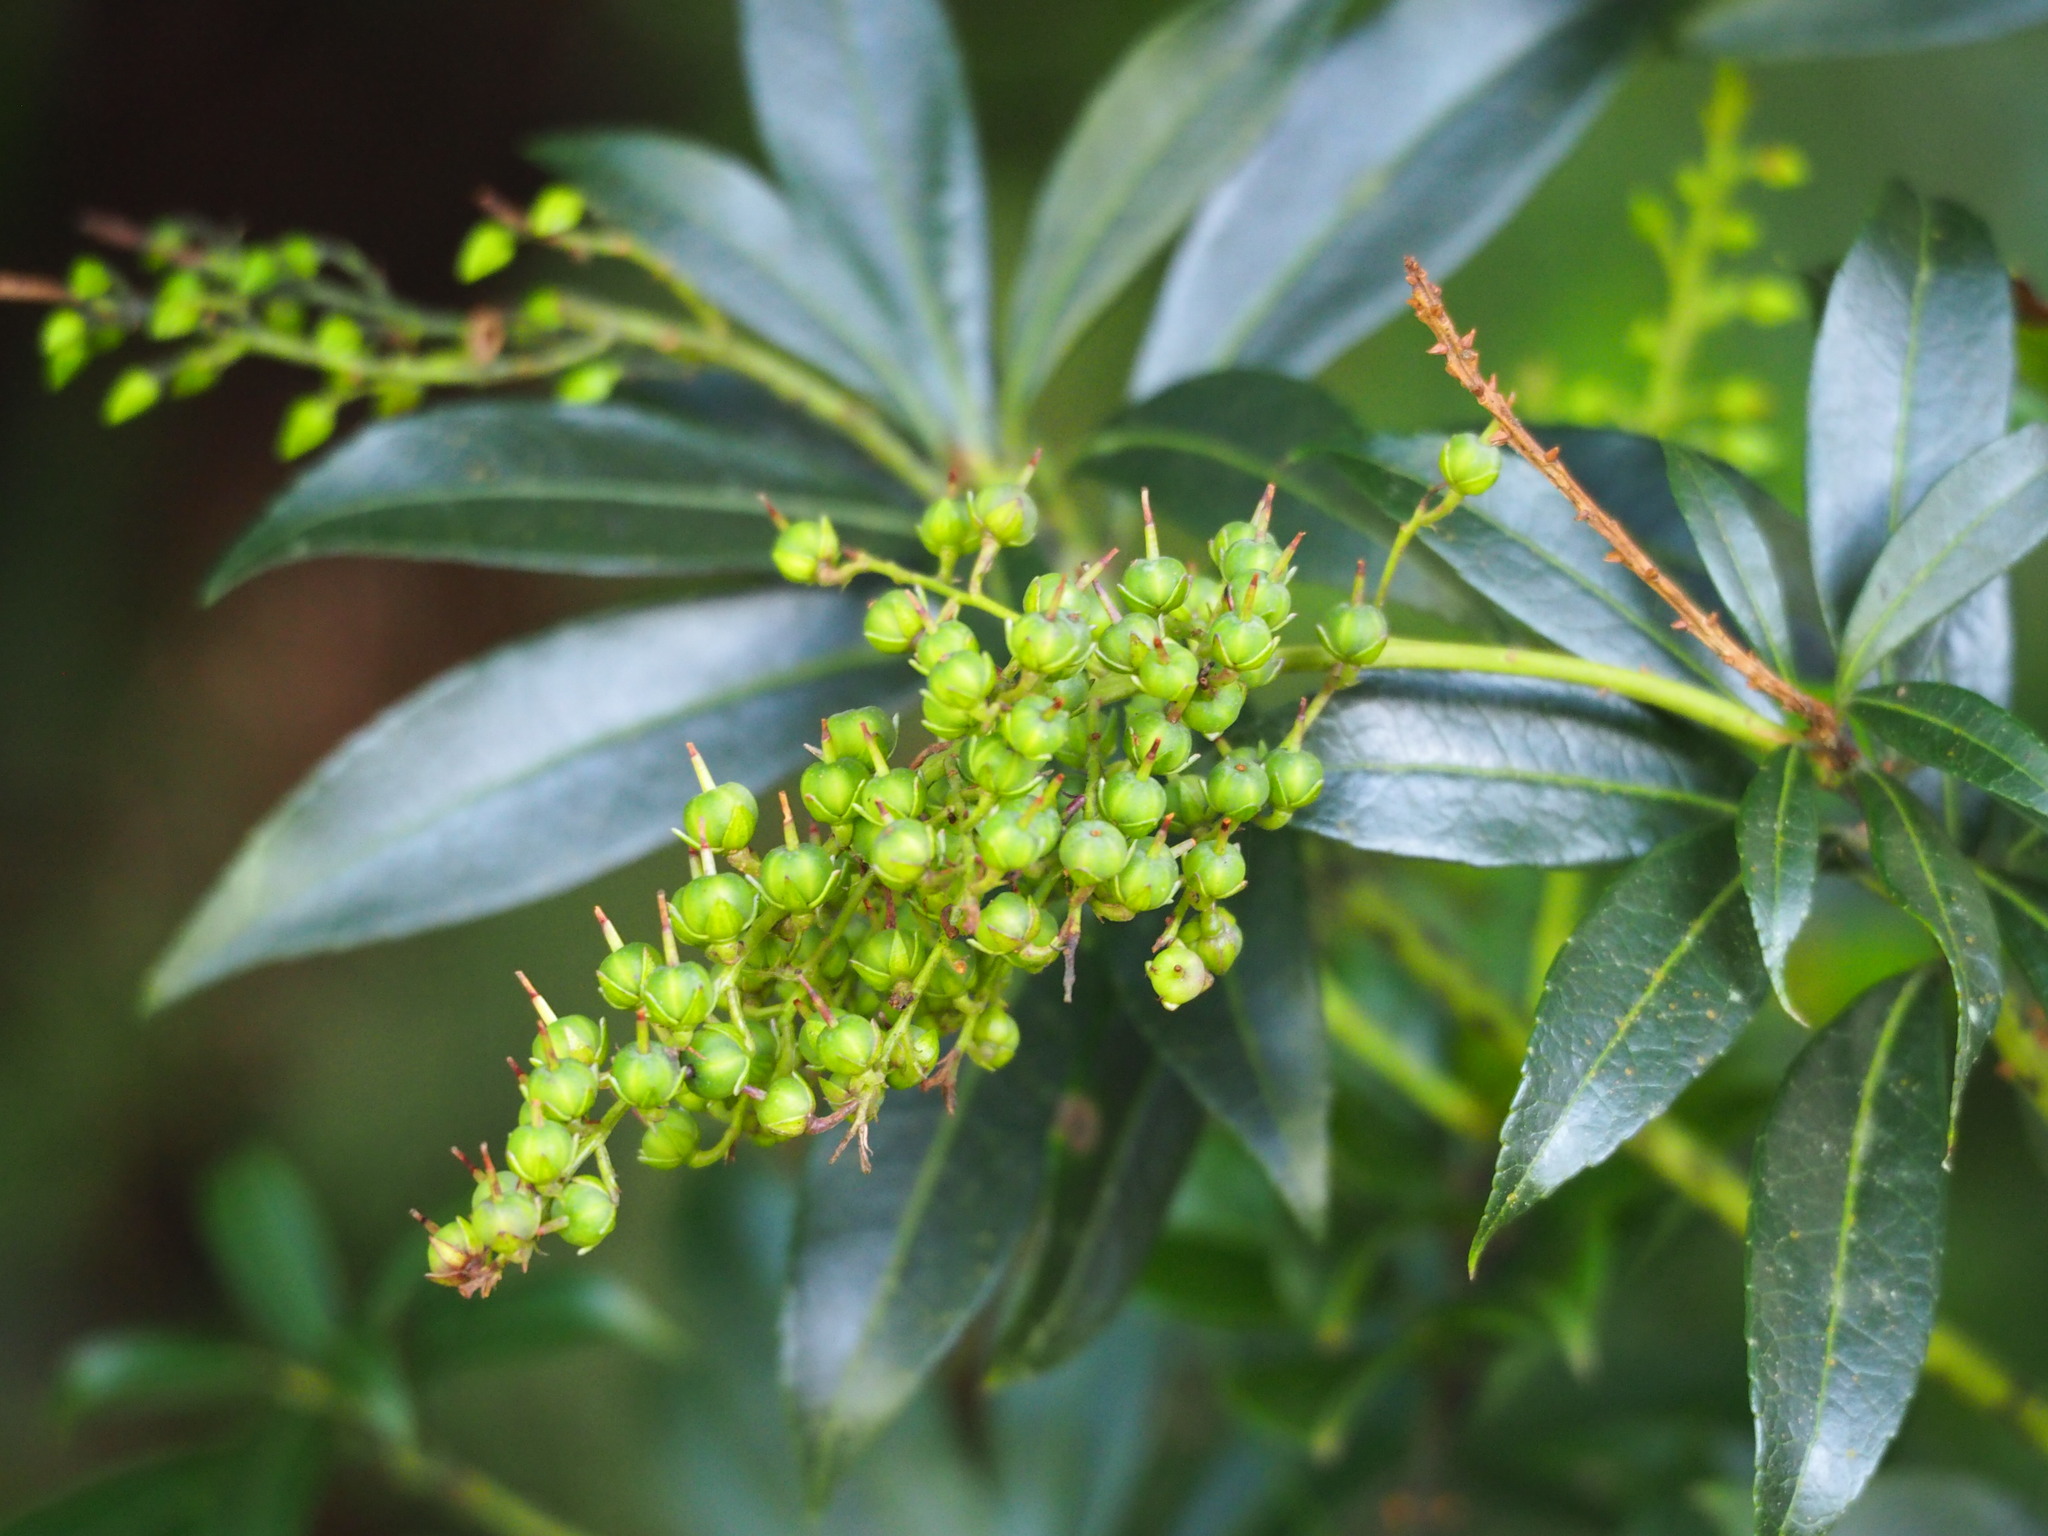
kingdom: Plantae
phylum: Tracheophyta
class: Magnoliopsida
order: Ericales
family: Ericaceae
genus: Pieris
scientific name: Pieris japonica
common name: Japanese pieris
